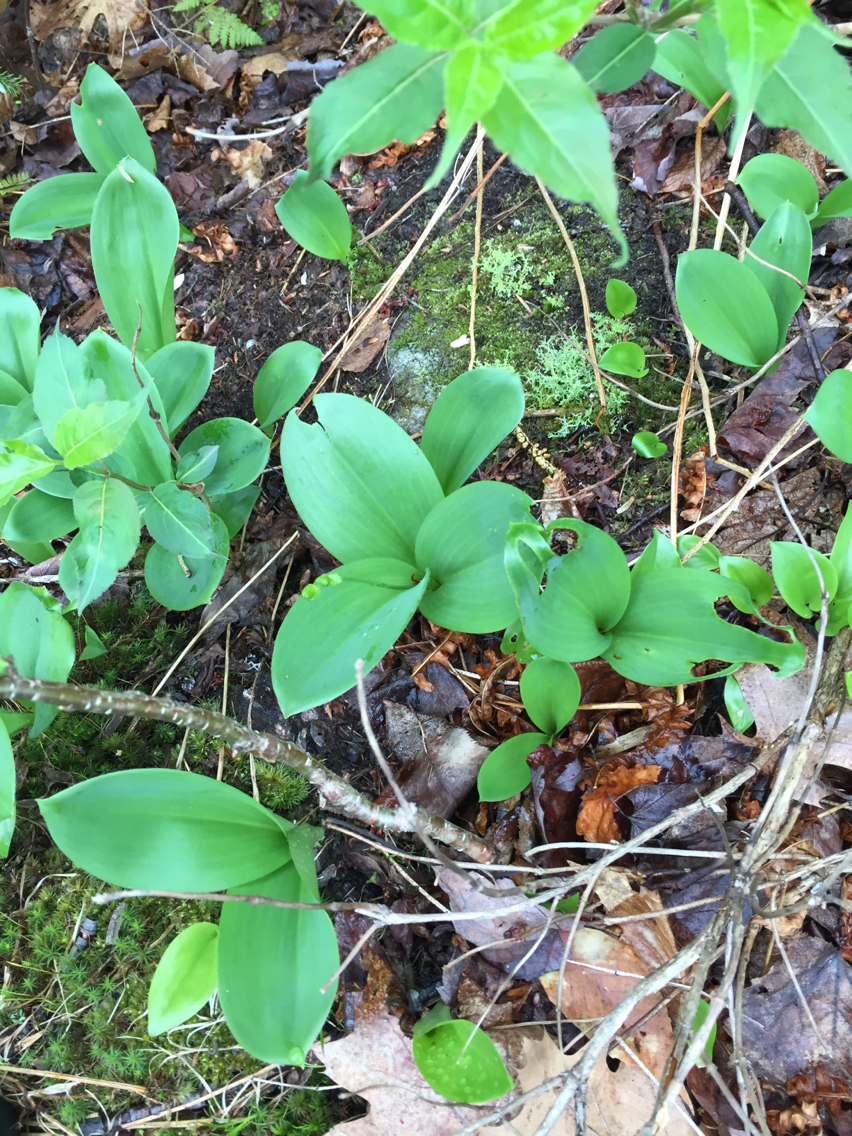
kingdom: Plantae
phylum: Tracheophyta
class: Liliopsida
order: Liliales
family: Liliaceae
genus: Clintonia
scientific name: Clintonia borealis
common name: Yellow clintonia
